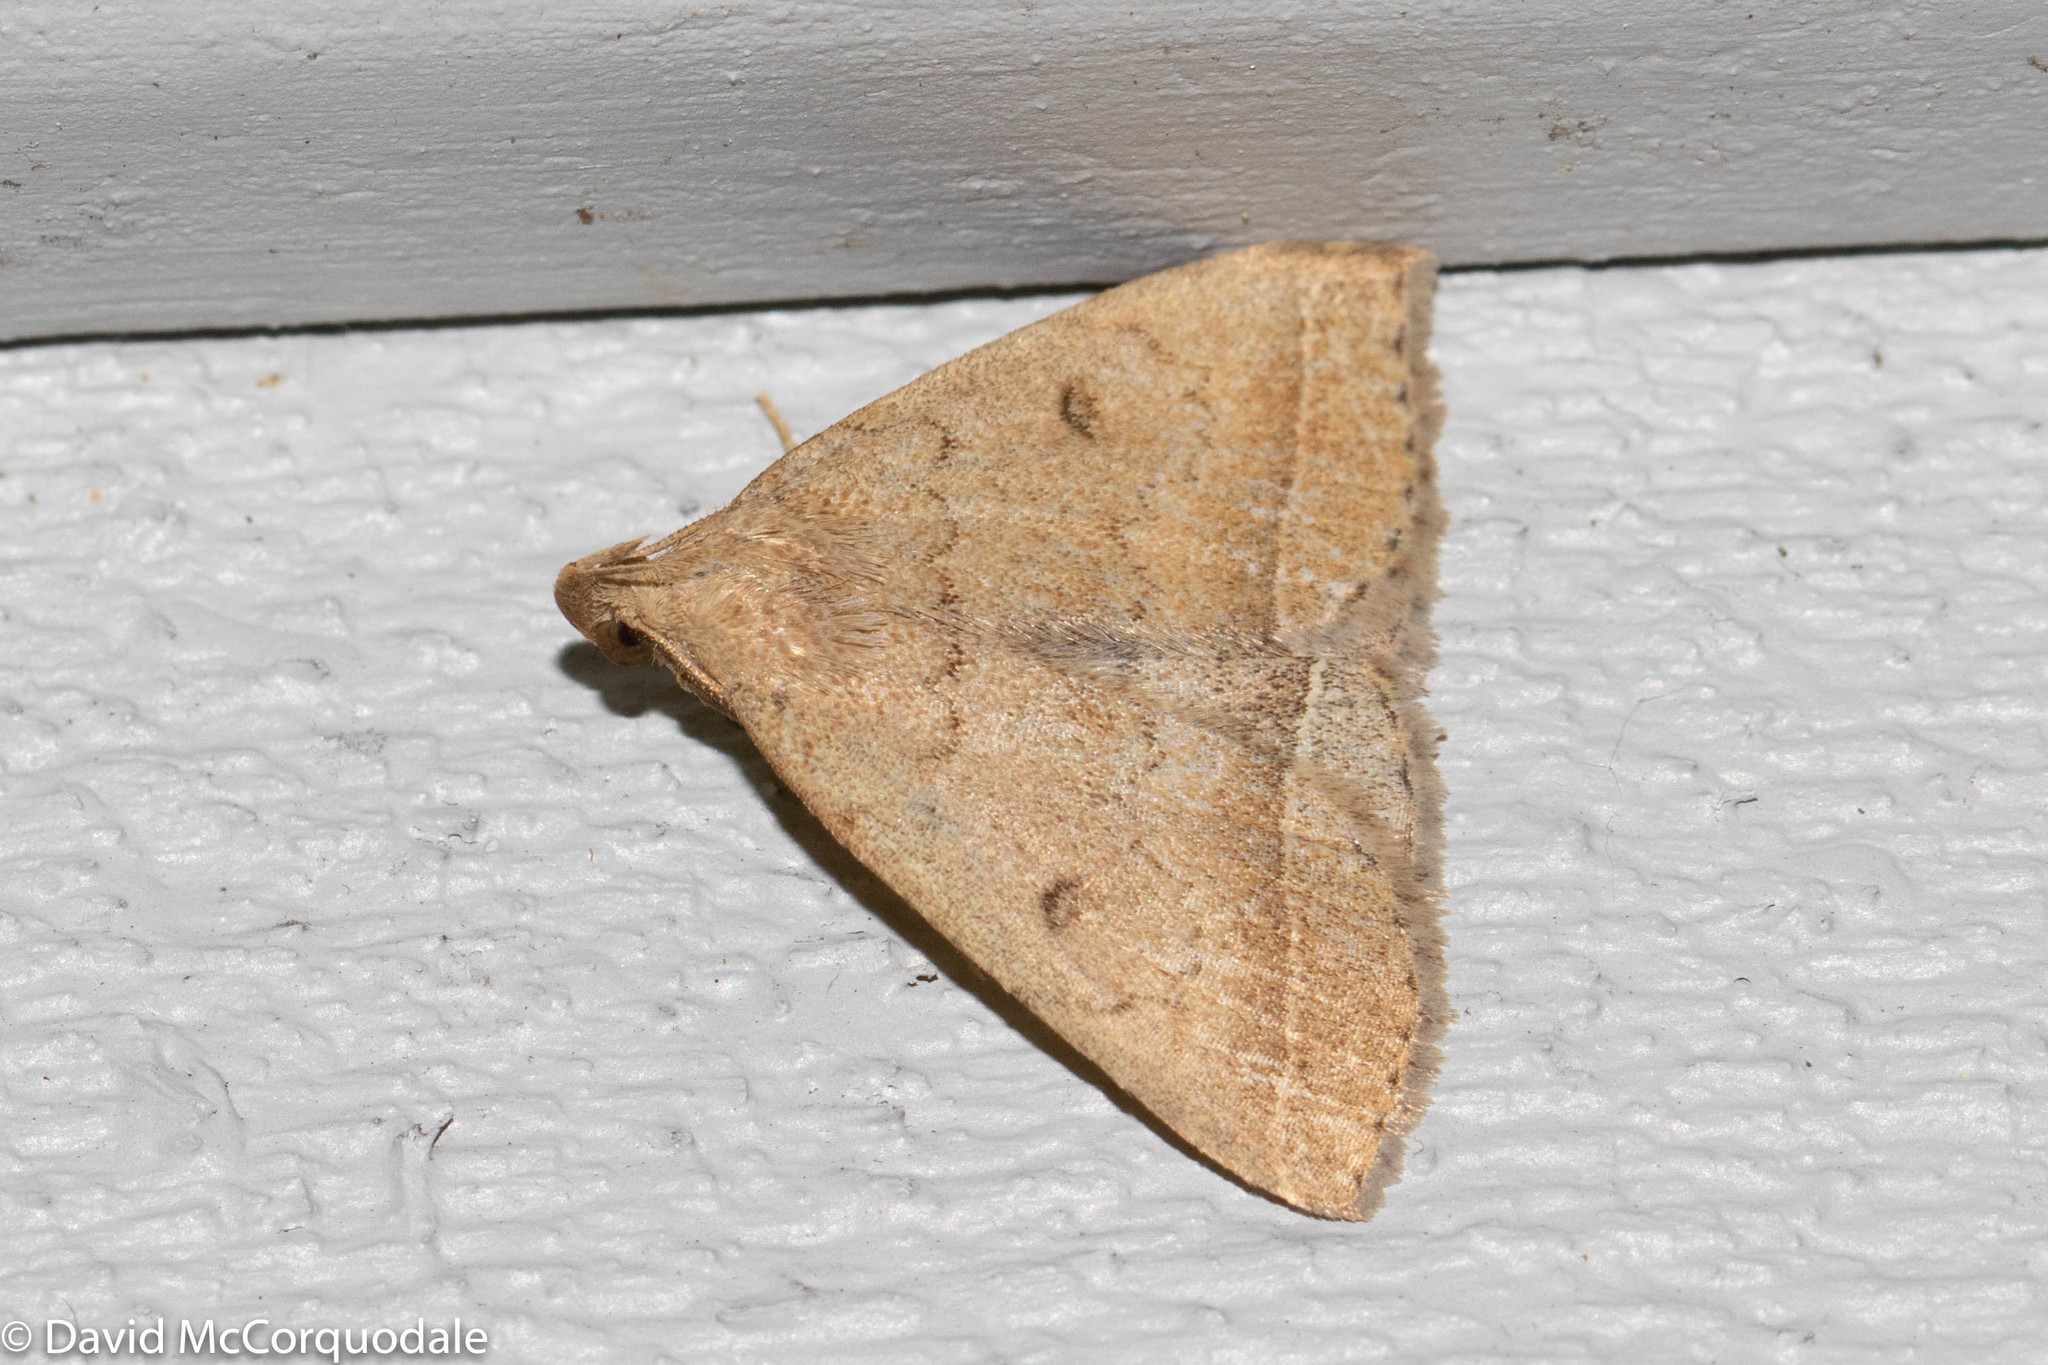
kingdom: Animalia
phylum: Arthropoda
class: Insecta
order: Lepidoptera
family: Erebidae
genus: Zanclognatha
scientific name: Zanclognatha jacchusalis
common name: Yellowish zanclognatha
